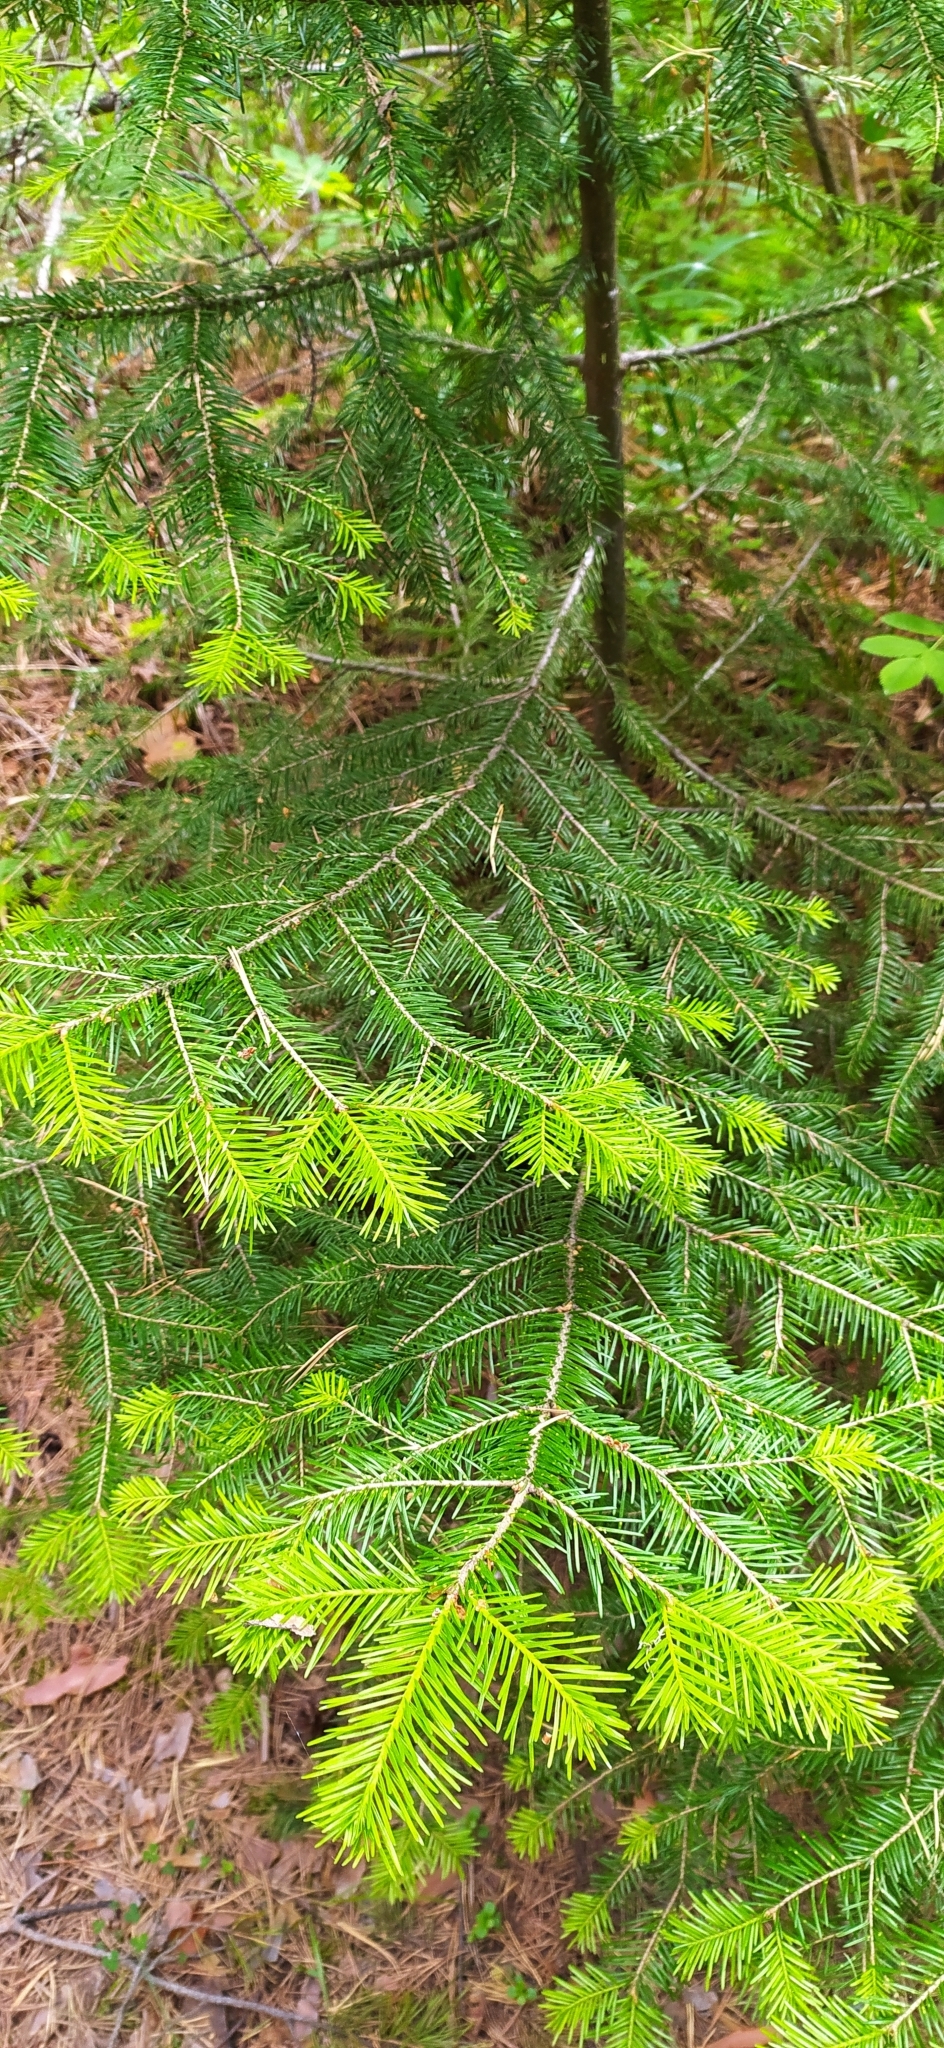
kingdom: Plantae
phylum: Tracheophyta
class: Pinopsida
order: Pinales
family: Pinaceae
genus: Abies
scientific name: Abies sibirica
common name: Siberian fir
